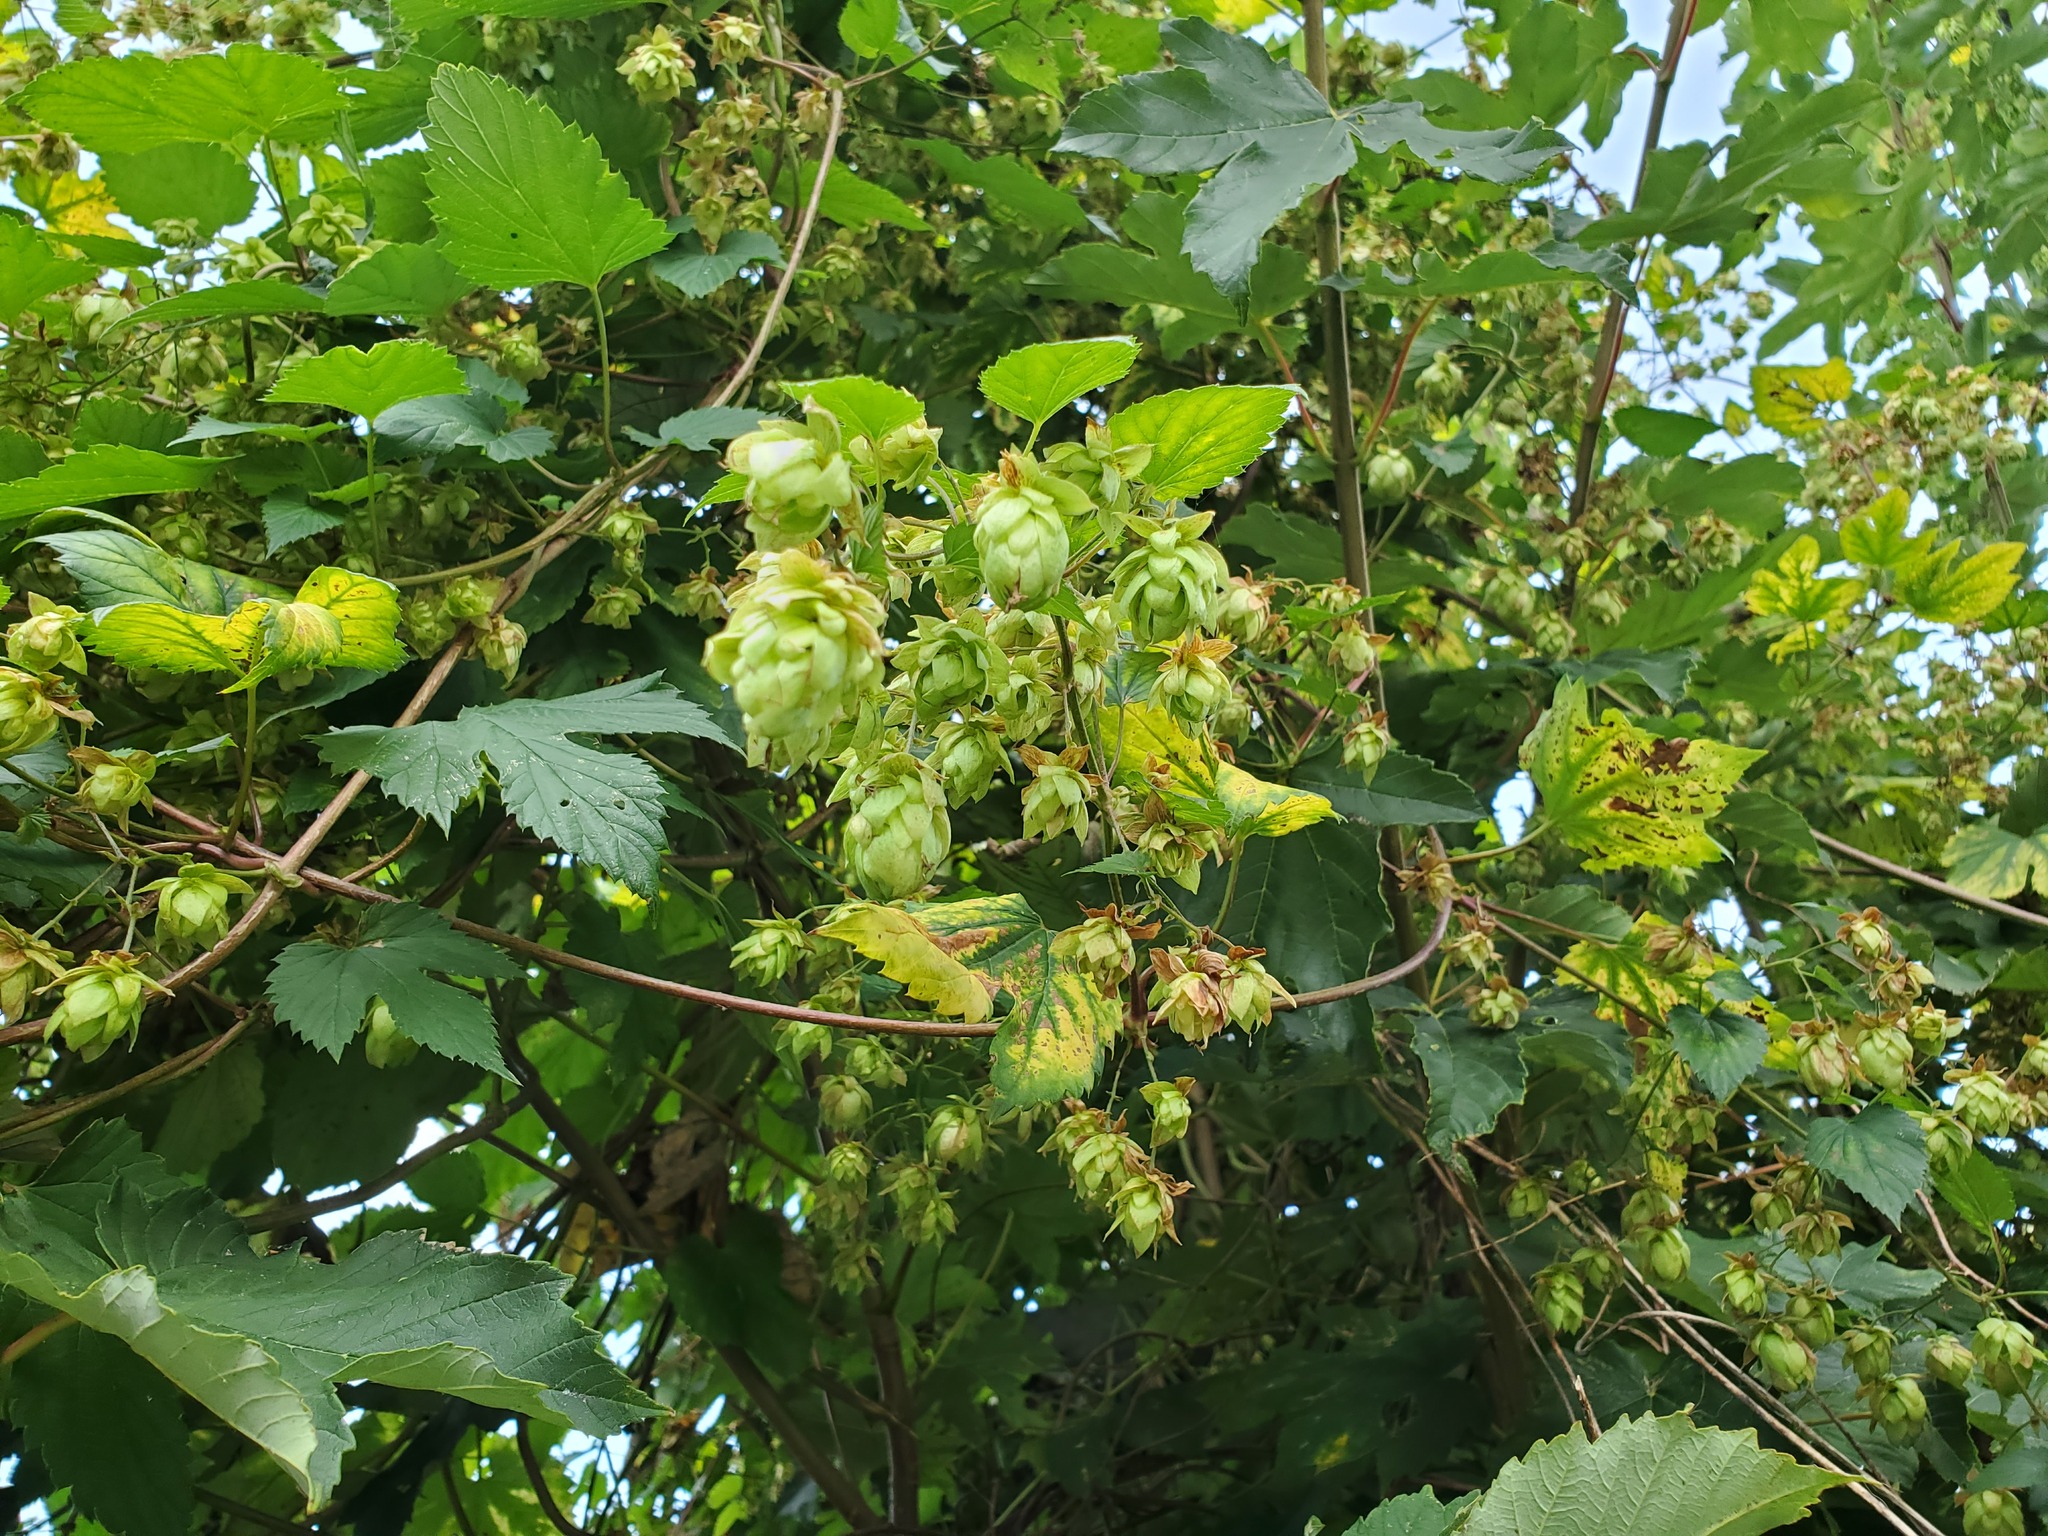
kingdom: Plantae
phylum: Tracheophyta
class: Magnoliopsida
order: Rosales
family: Cannabaceae
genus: Humulus
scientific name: Humulus lupulus
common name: Hop
